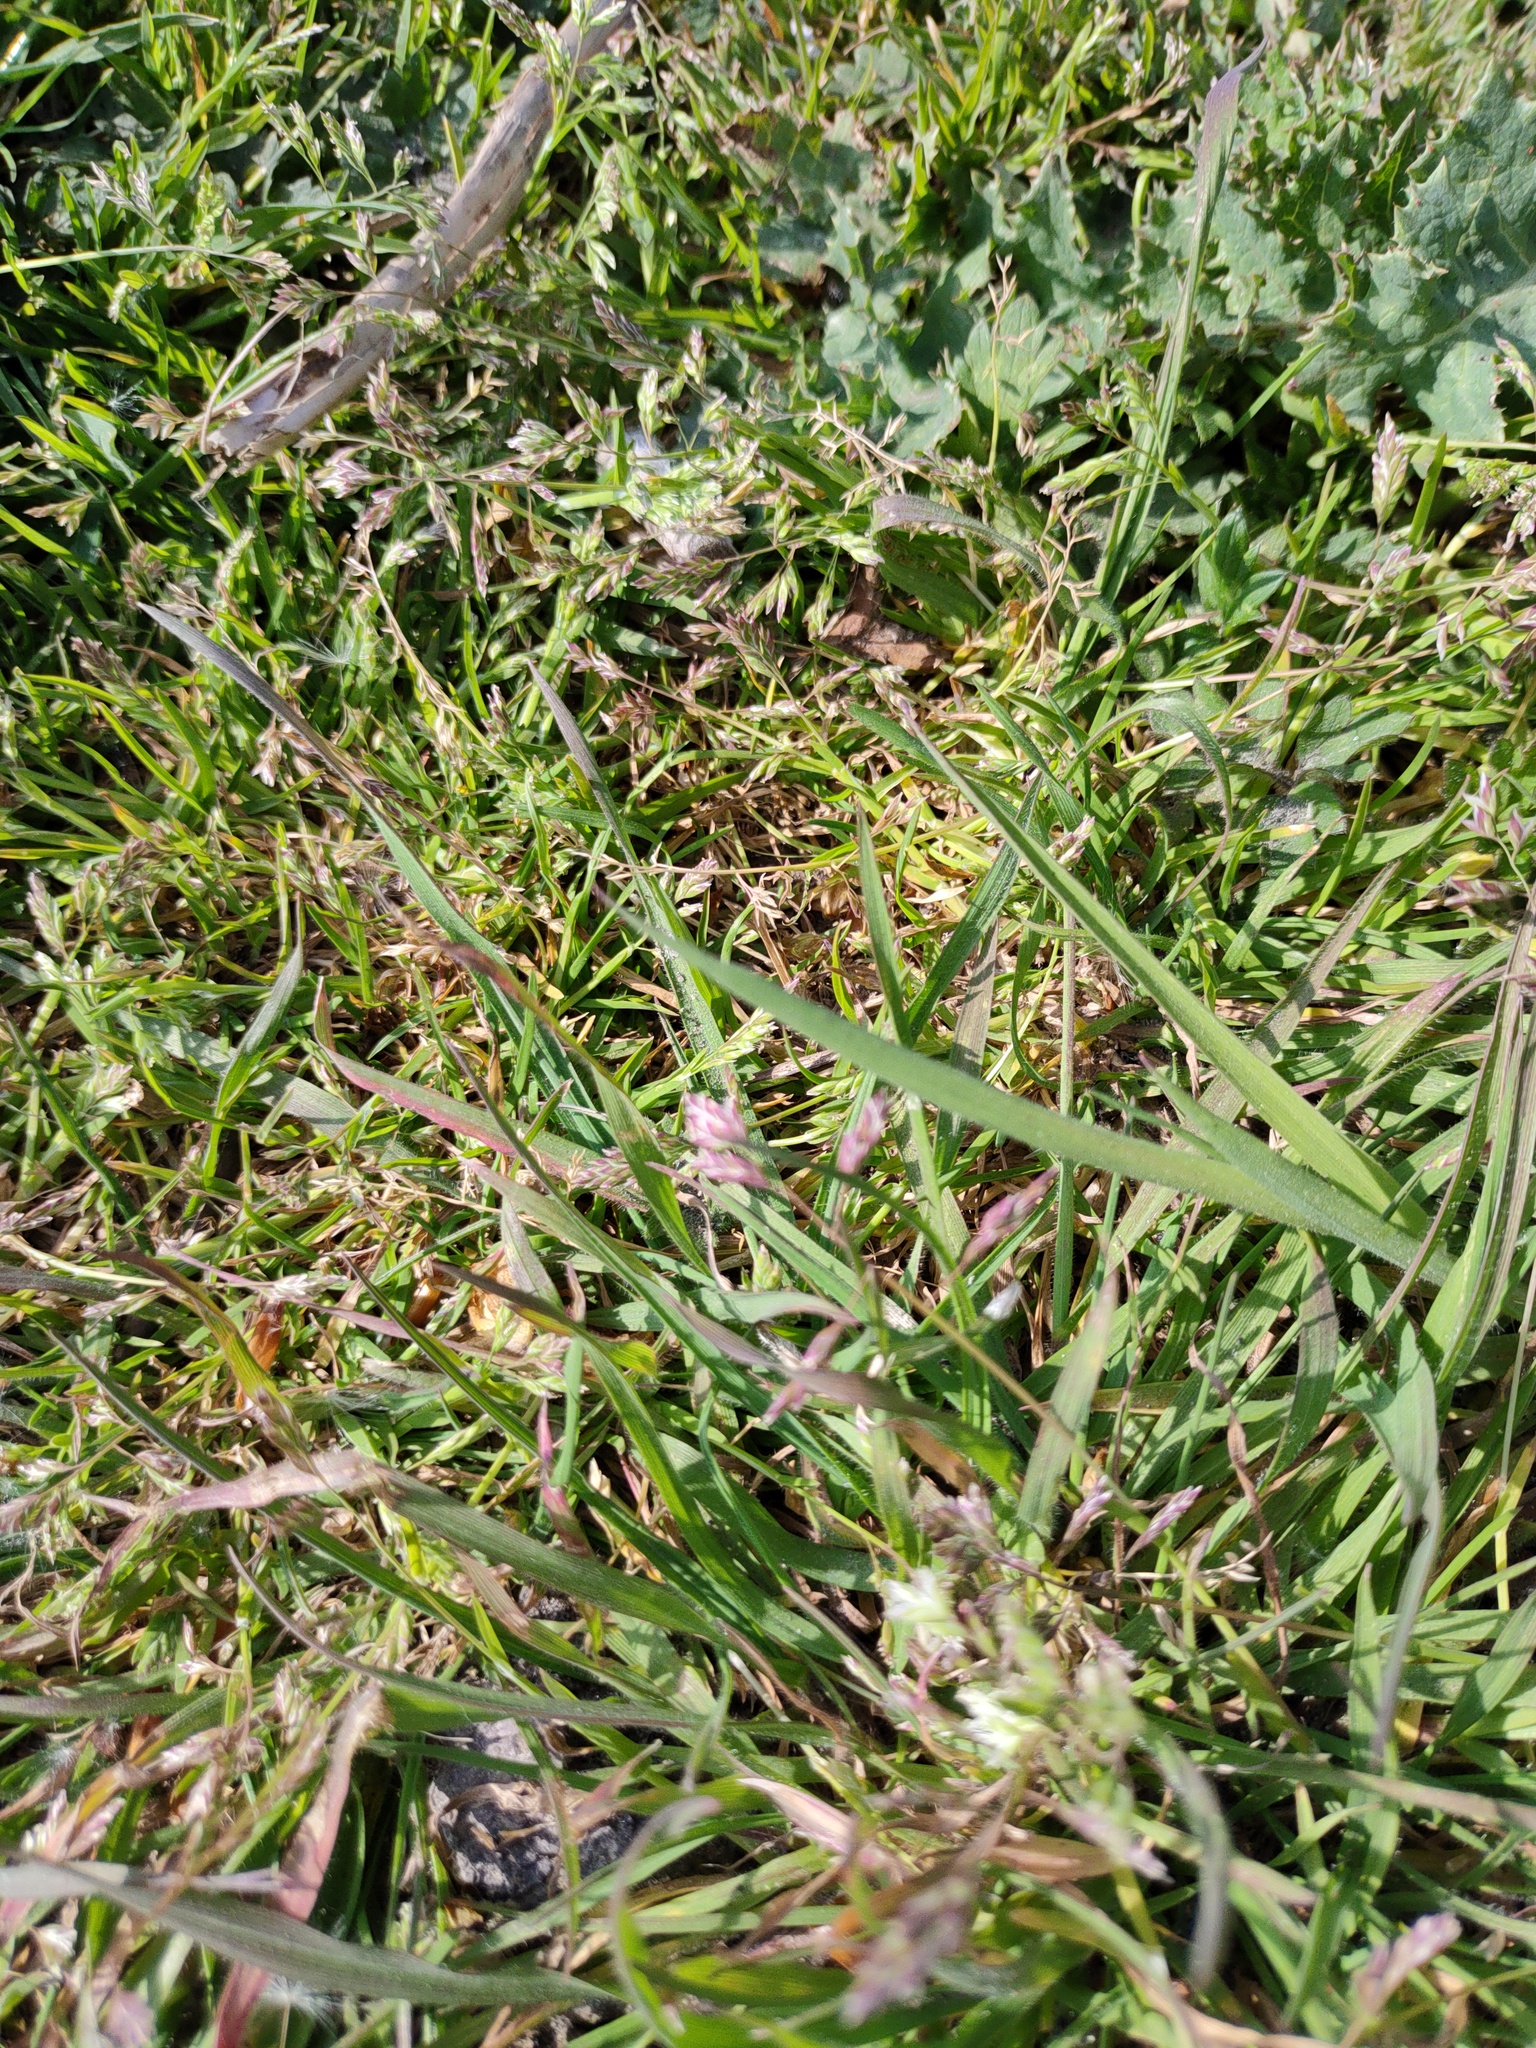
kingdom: Plantae
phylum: Tracheophyta
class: Liliopsida
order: Poales
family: Poaceae
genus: Poa
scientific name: Poa annua
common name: Annual bluegrass
